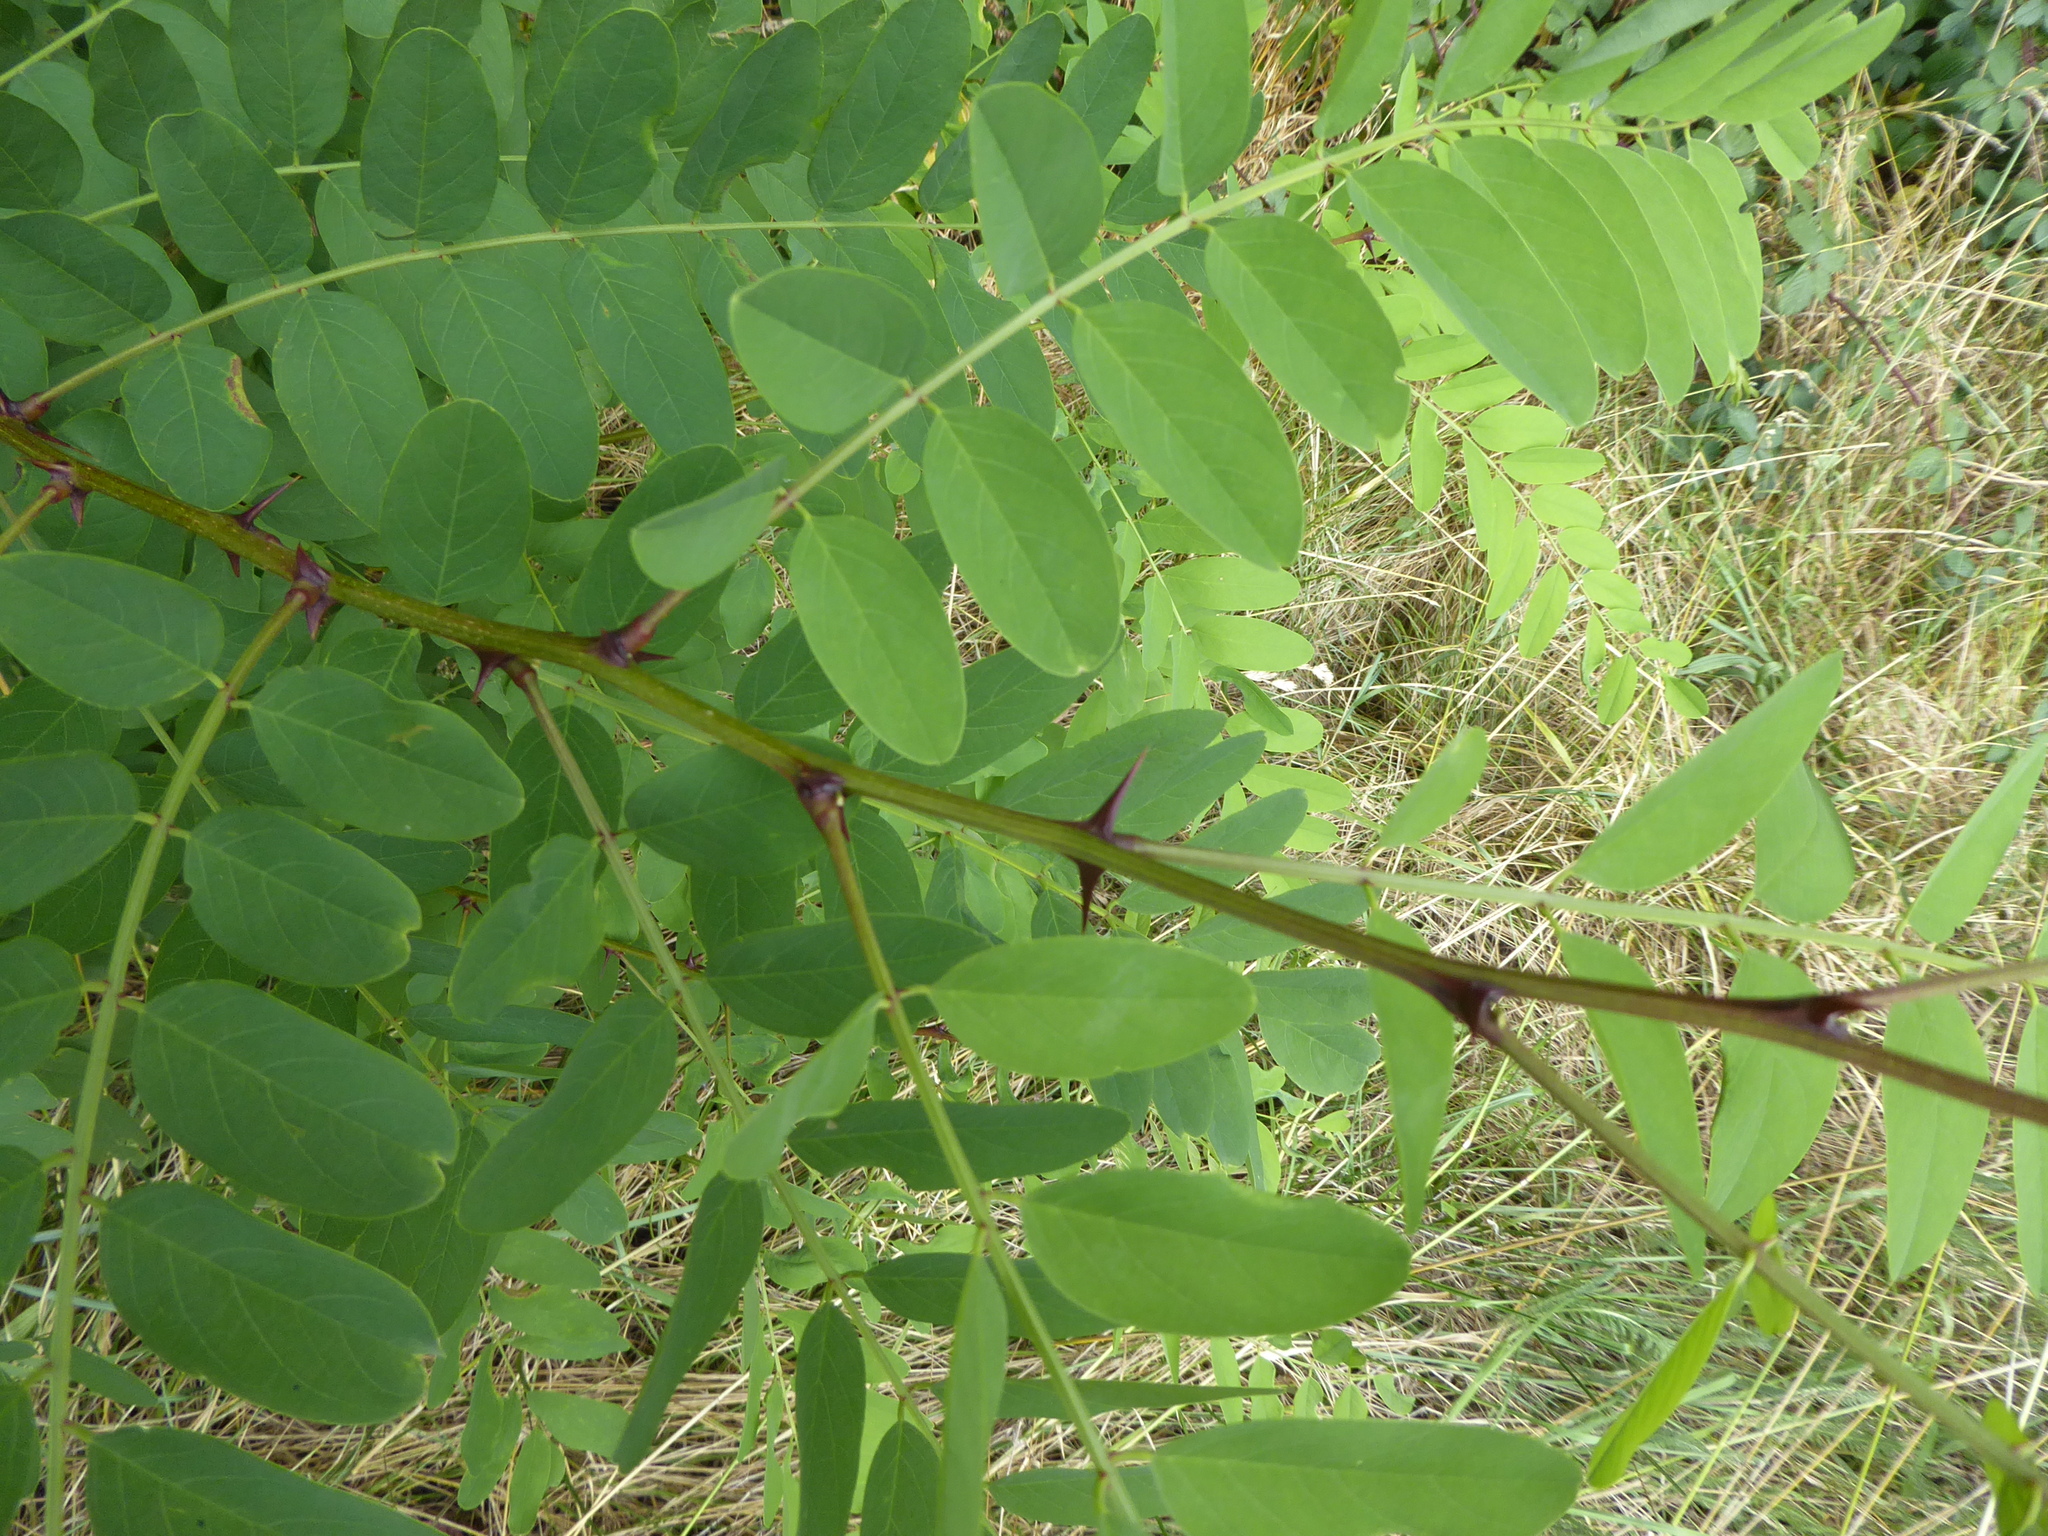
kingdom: Plantae
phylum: Tracheophyta
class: Magnoliopsida
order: Fabales
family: Fabaceae
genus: Robinia
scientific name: Robinia pseudoacacia
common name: Black locust
